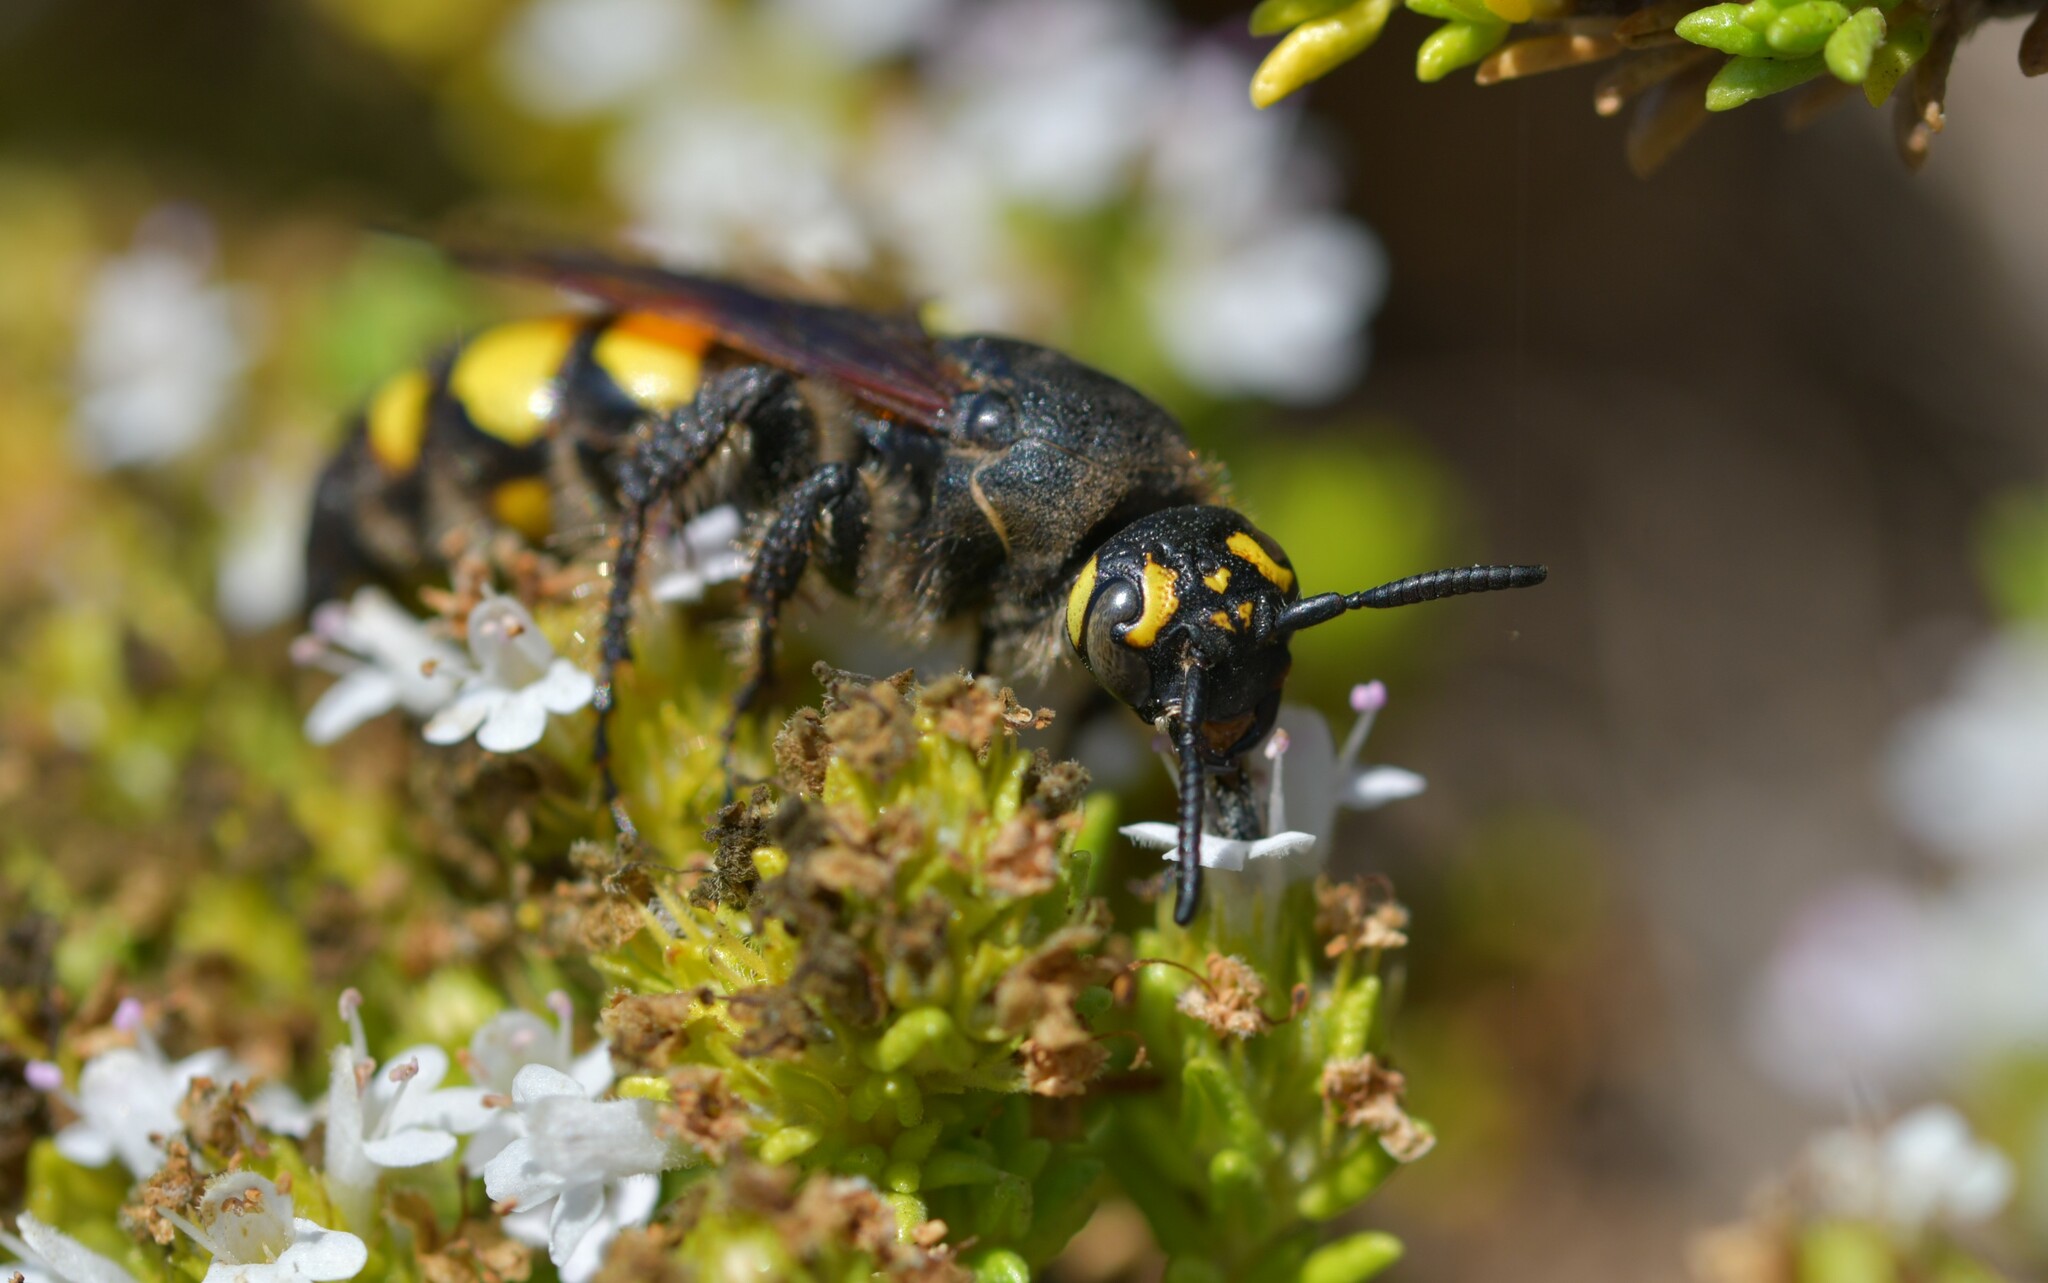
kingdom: Animalia
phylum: Arthropoda
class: Insecta
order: Hymenoptera
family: Vespidae
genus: Vespa
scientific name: Vespa sexmaculata
